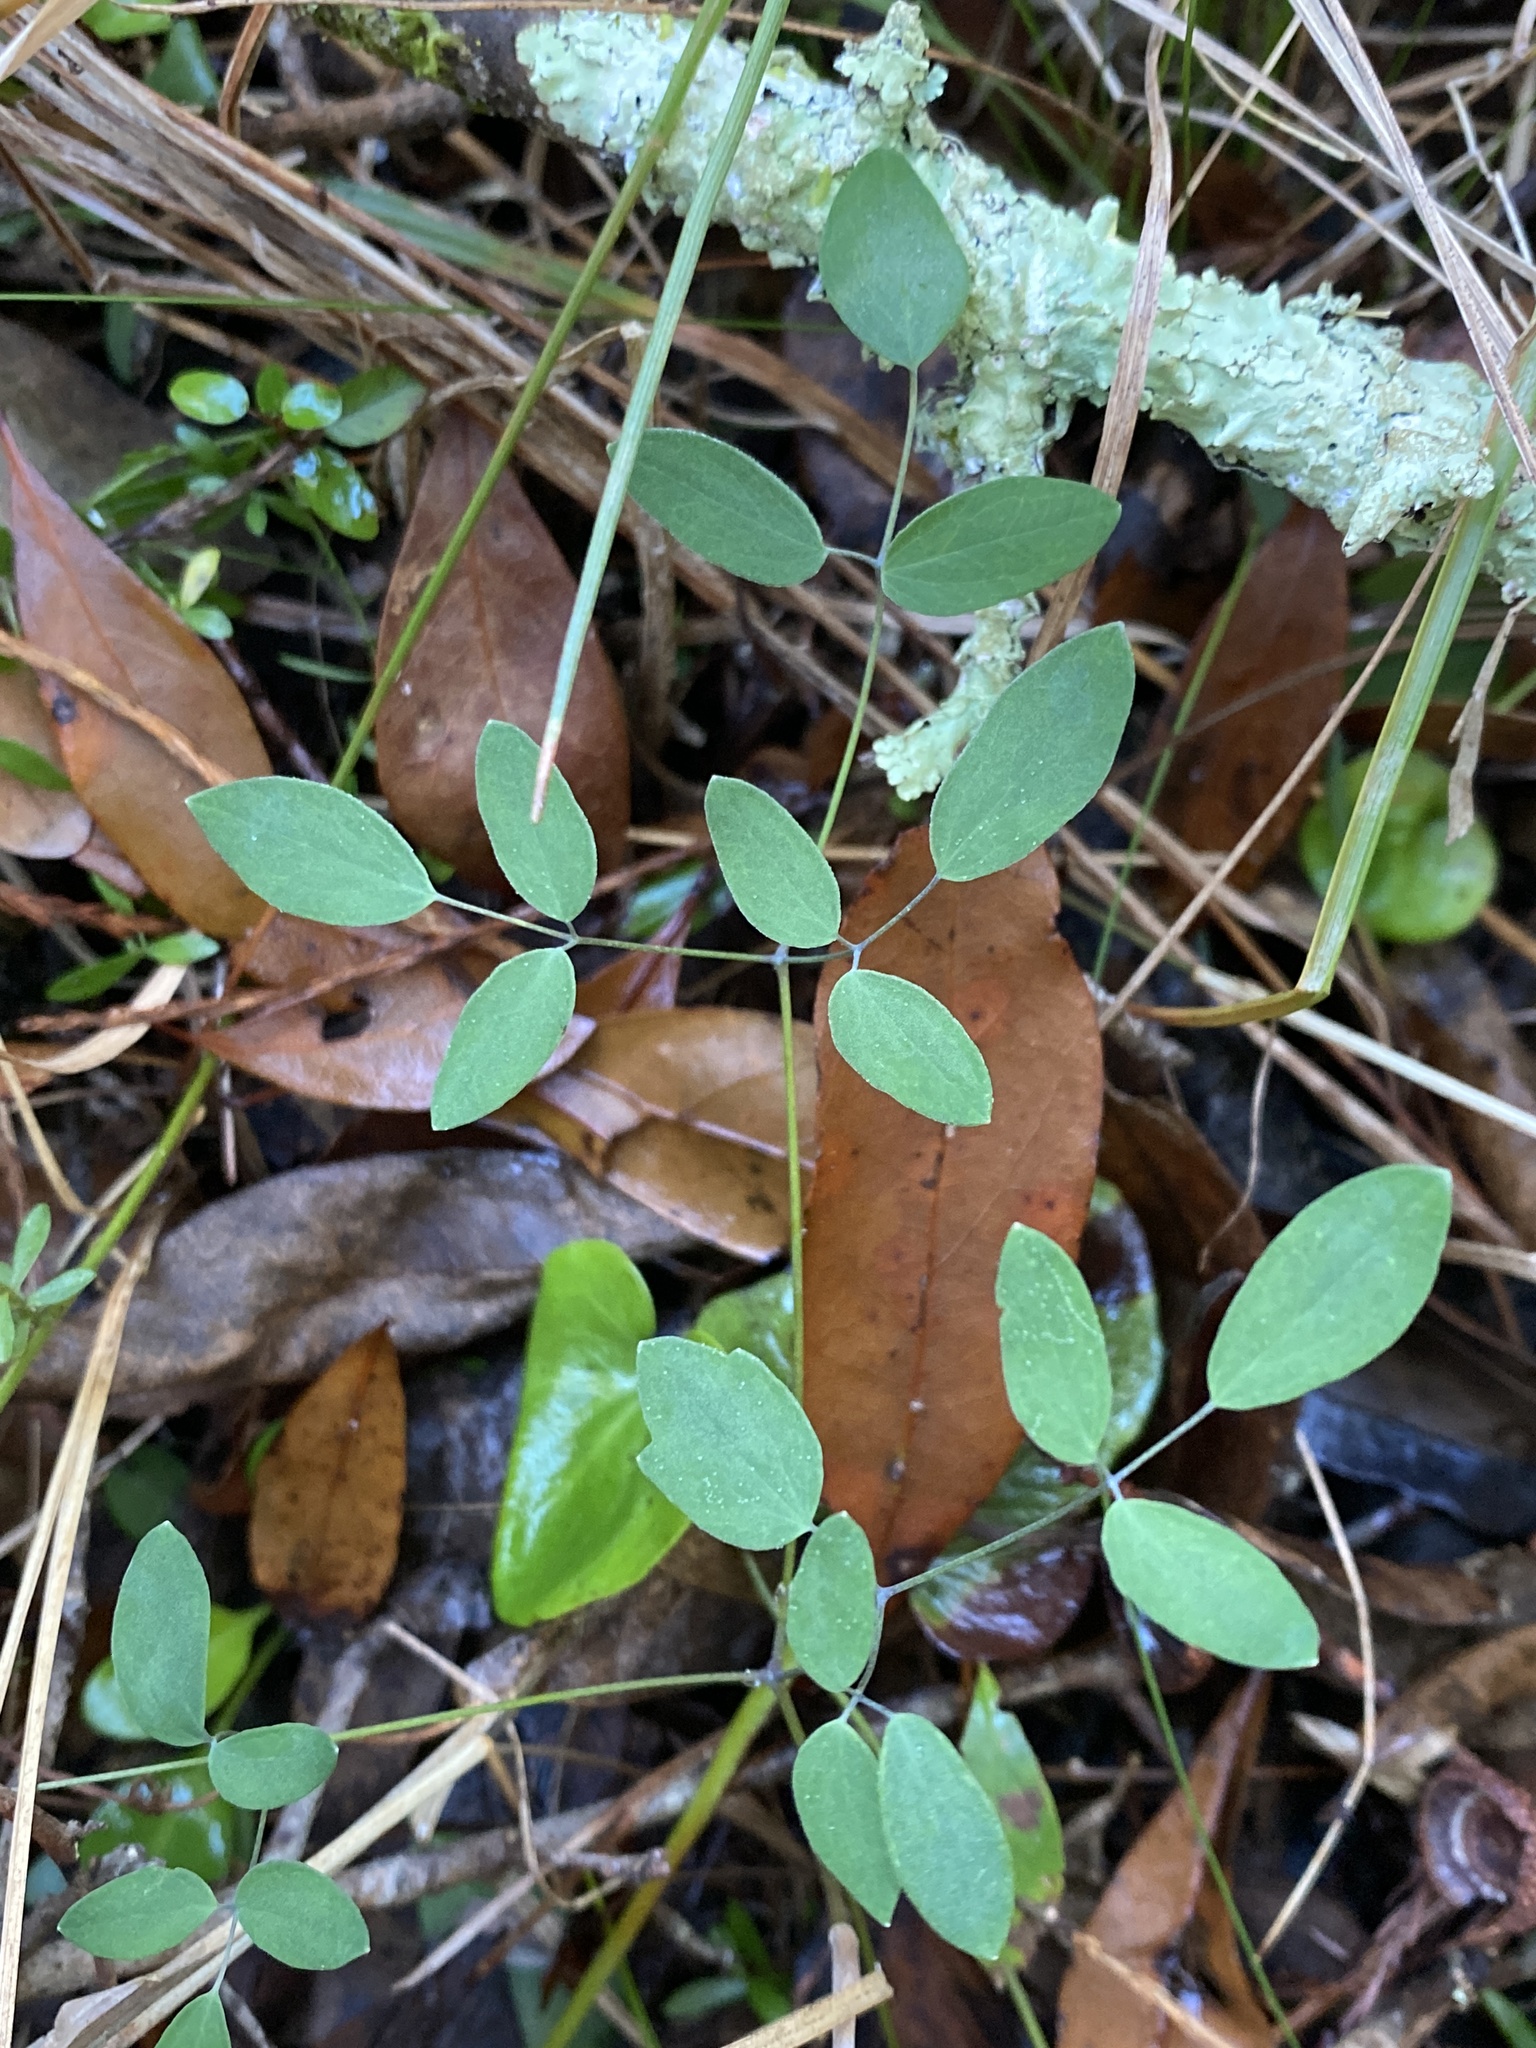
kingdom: Plantae
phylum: Tracheophyta
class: Magnoliopsida
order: Ranunculales
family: Ranunculaceae
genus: Thalictrum
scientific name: Thalictrum cooleyi
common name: Cooley's meadow-rue
